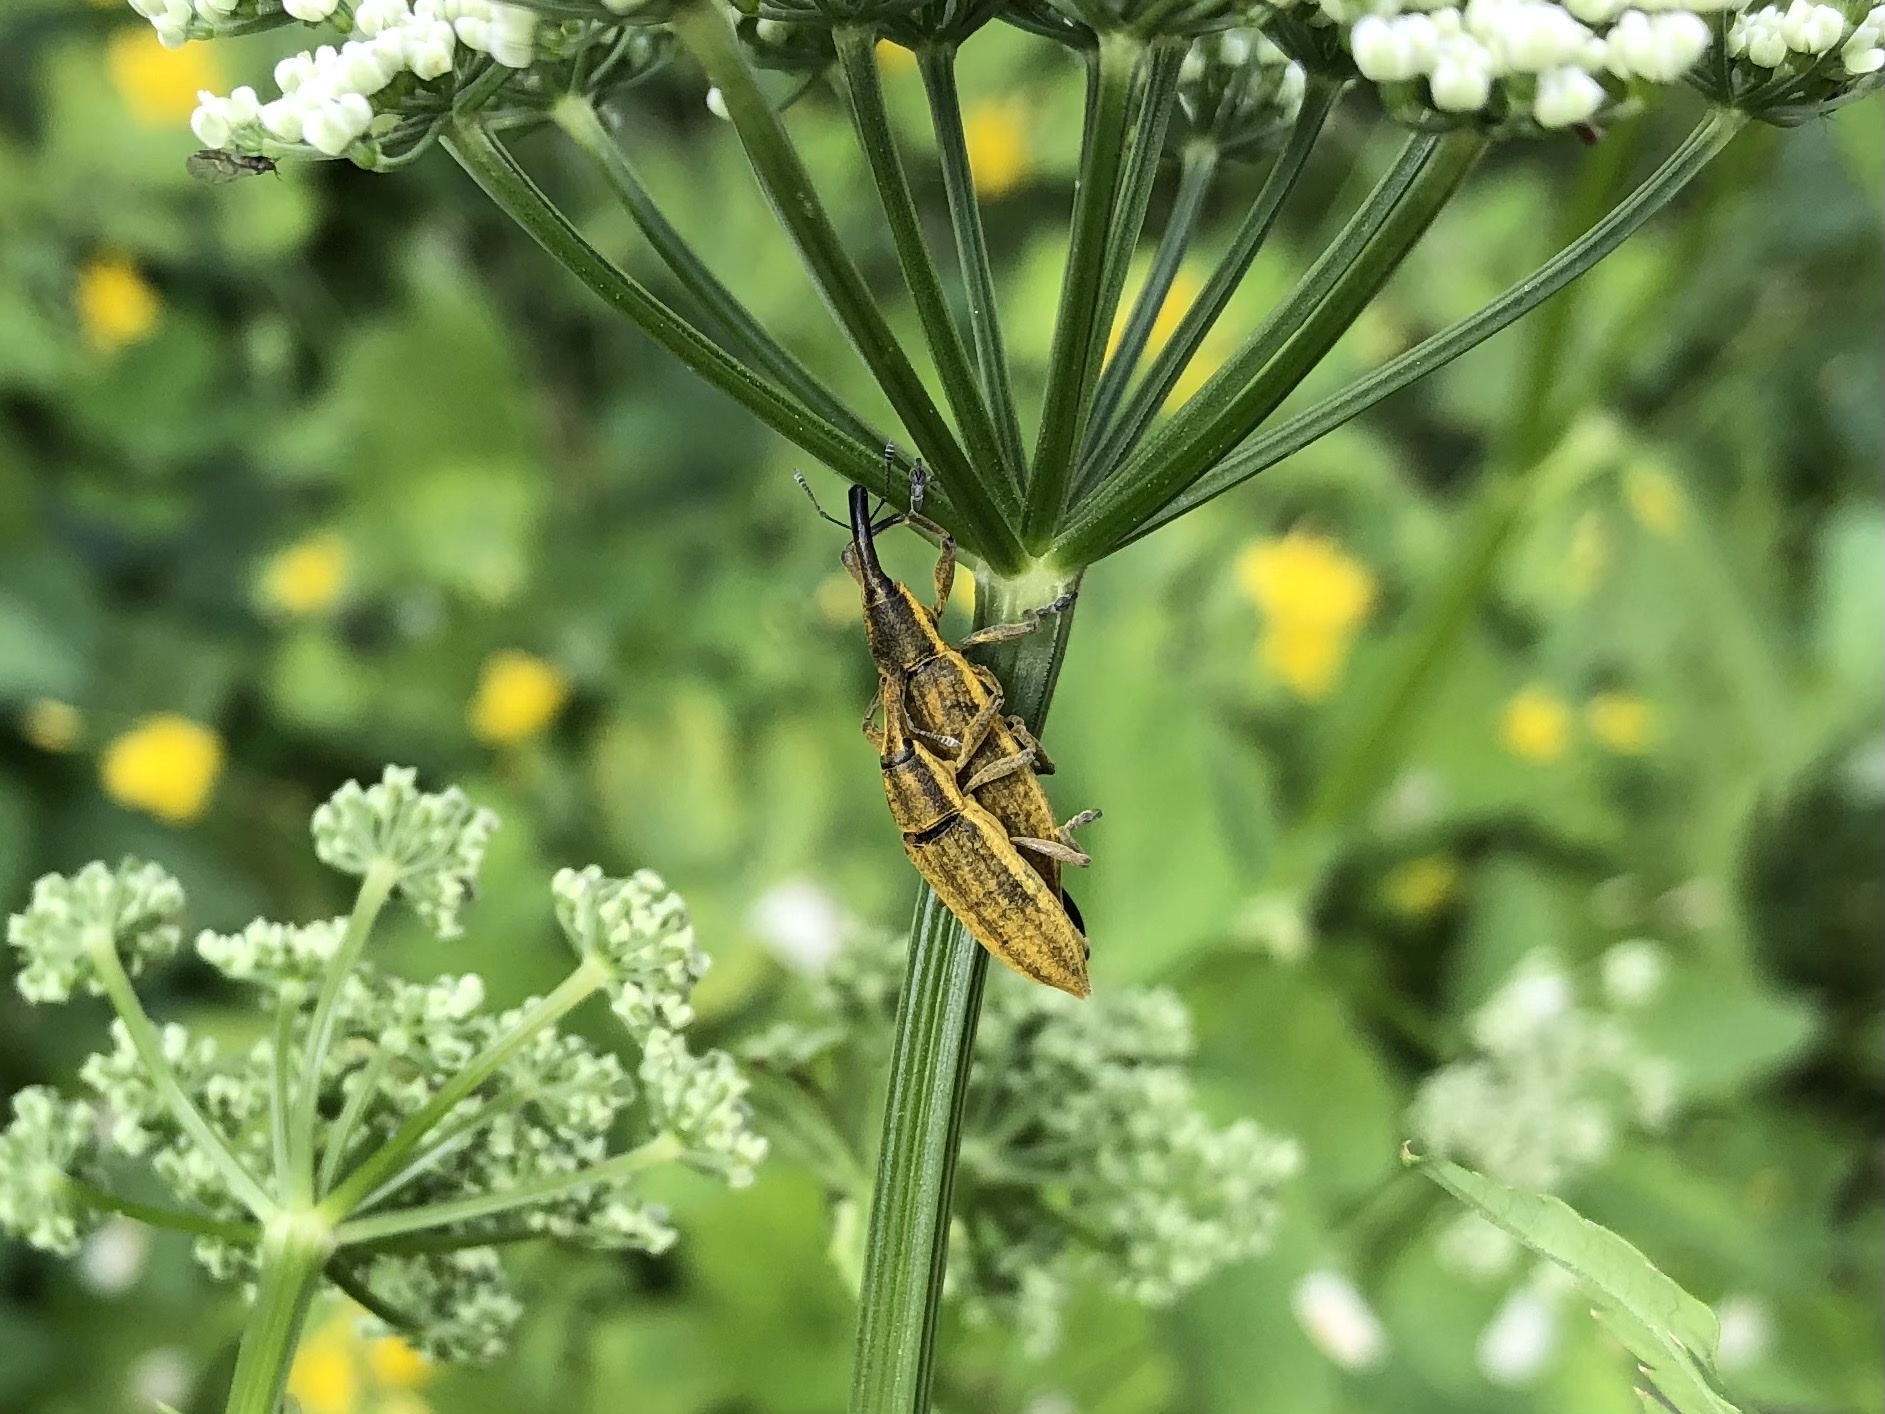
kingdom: Animalia
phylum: Arthropoda
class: Insecta
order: Coleoptera
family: Curculionidae
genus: Lixus
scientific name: Lixus iridis
